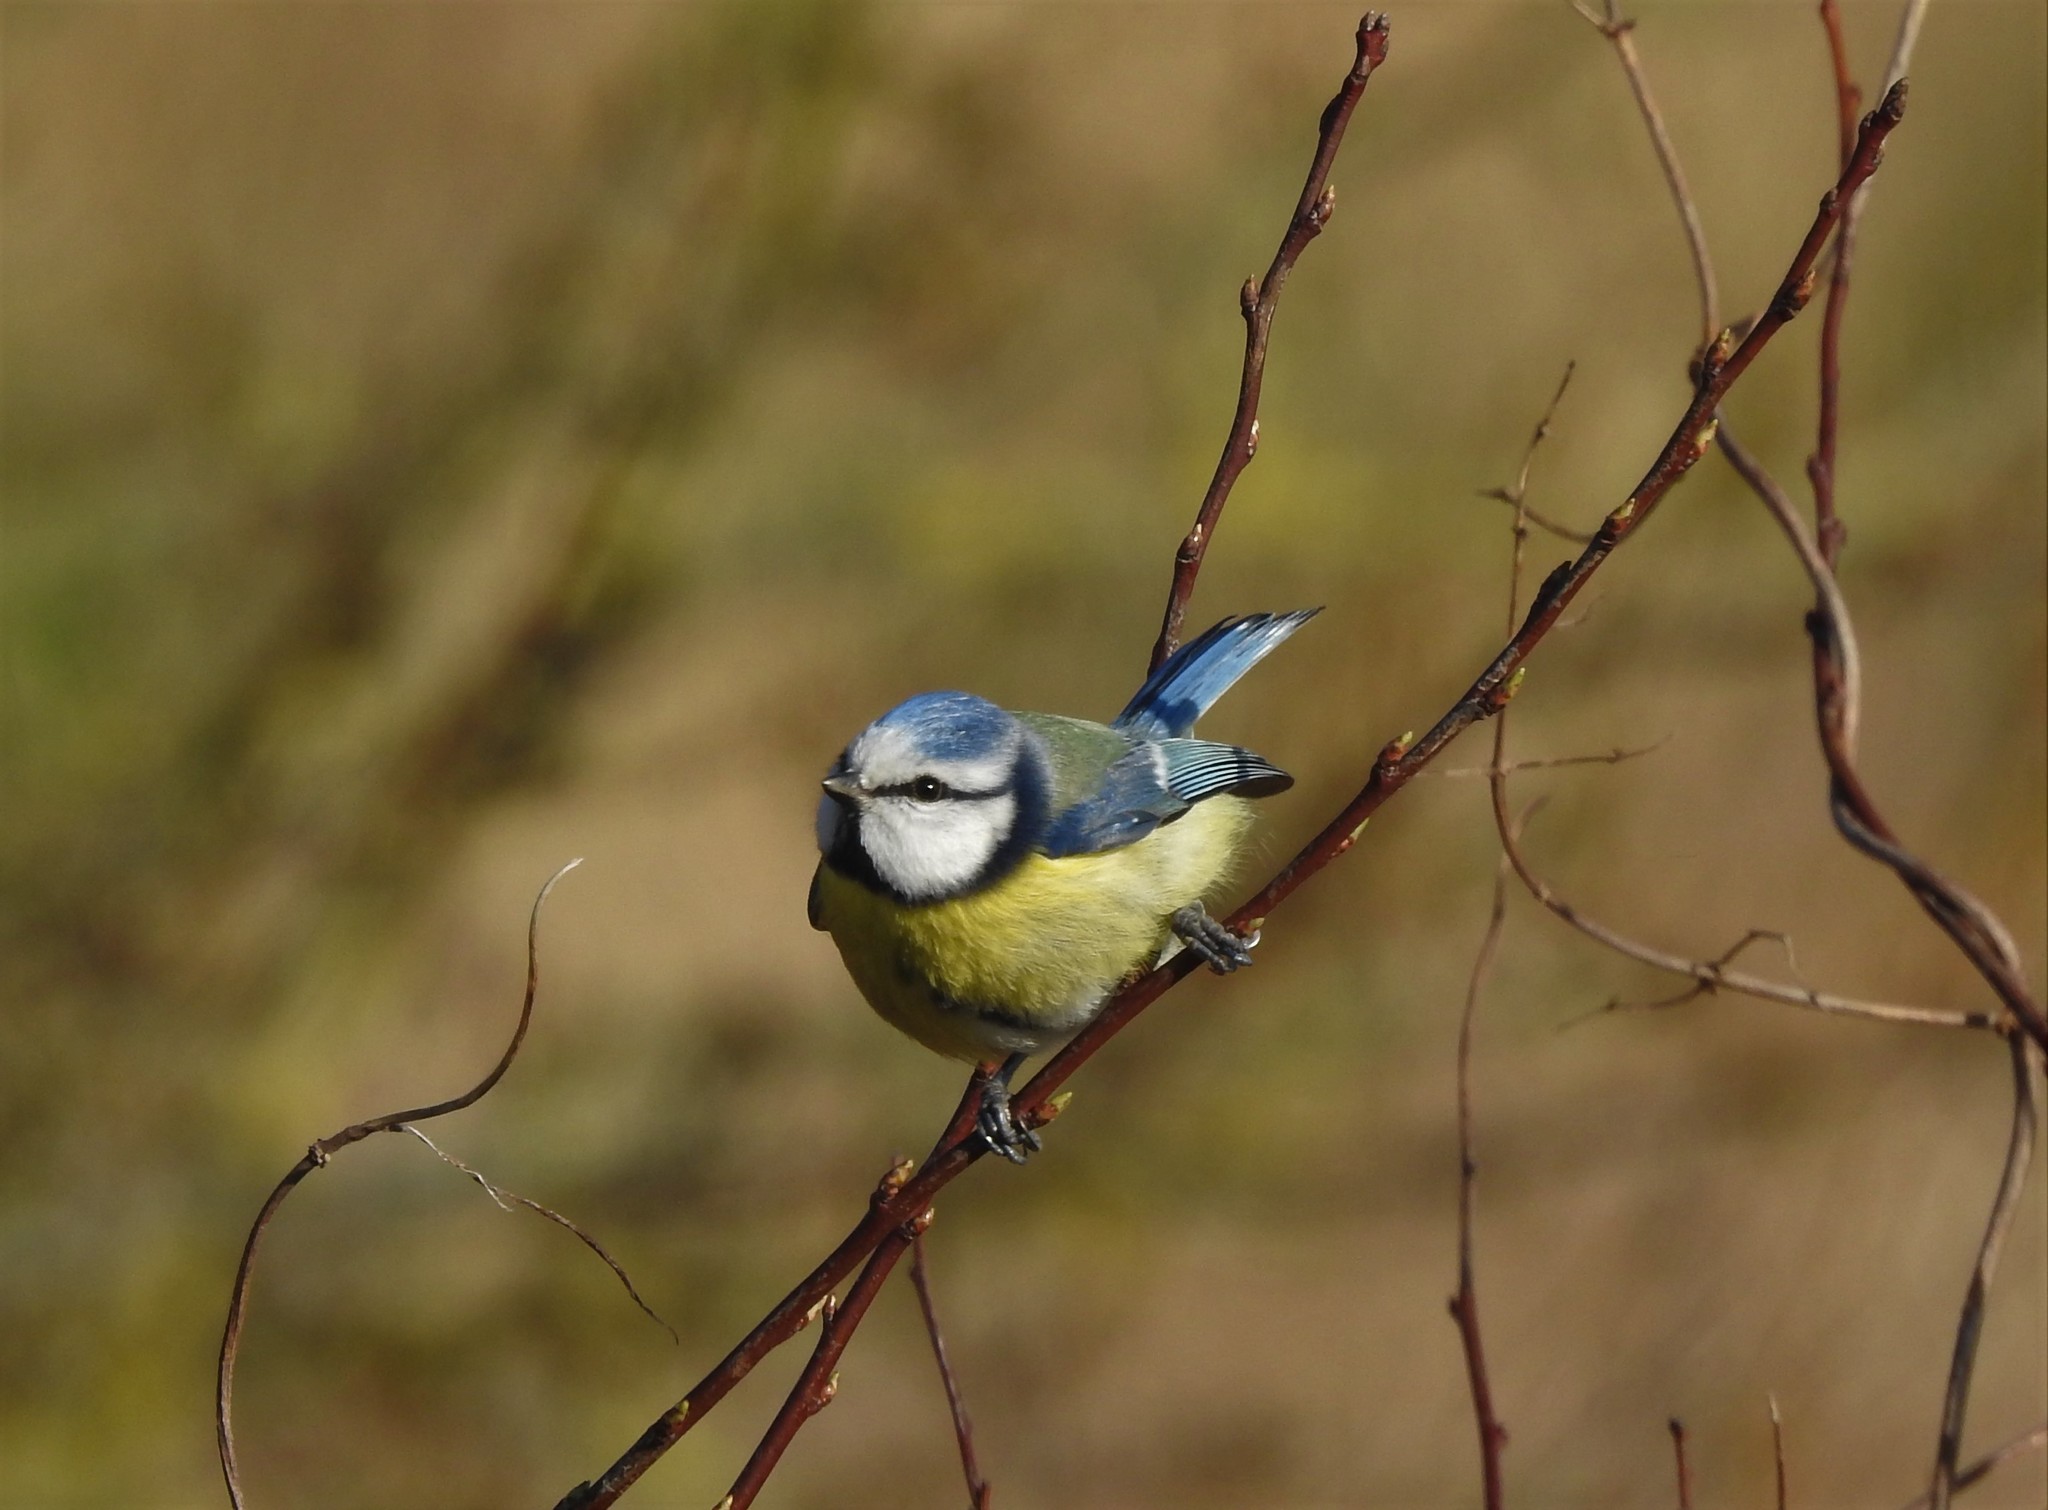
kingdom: Animalia
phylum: Chordata
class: Aves
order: Passeriformes
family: Paridae
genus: Cyanistes
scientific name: Cyanistes caeruleus
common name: Eurasian blue tit
